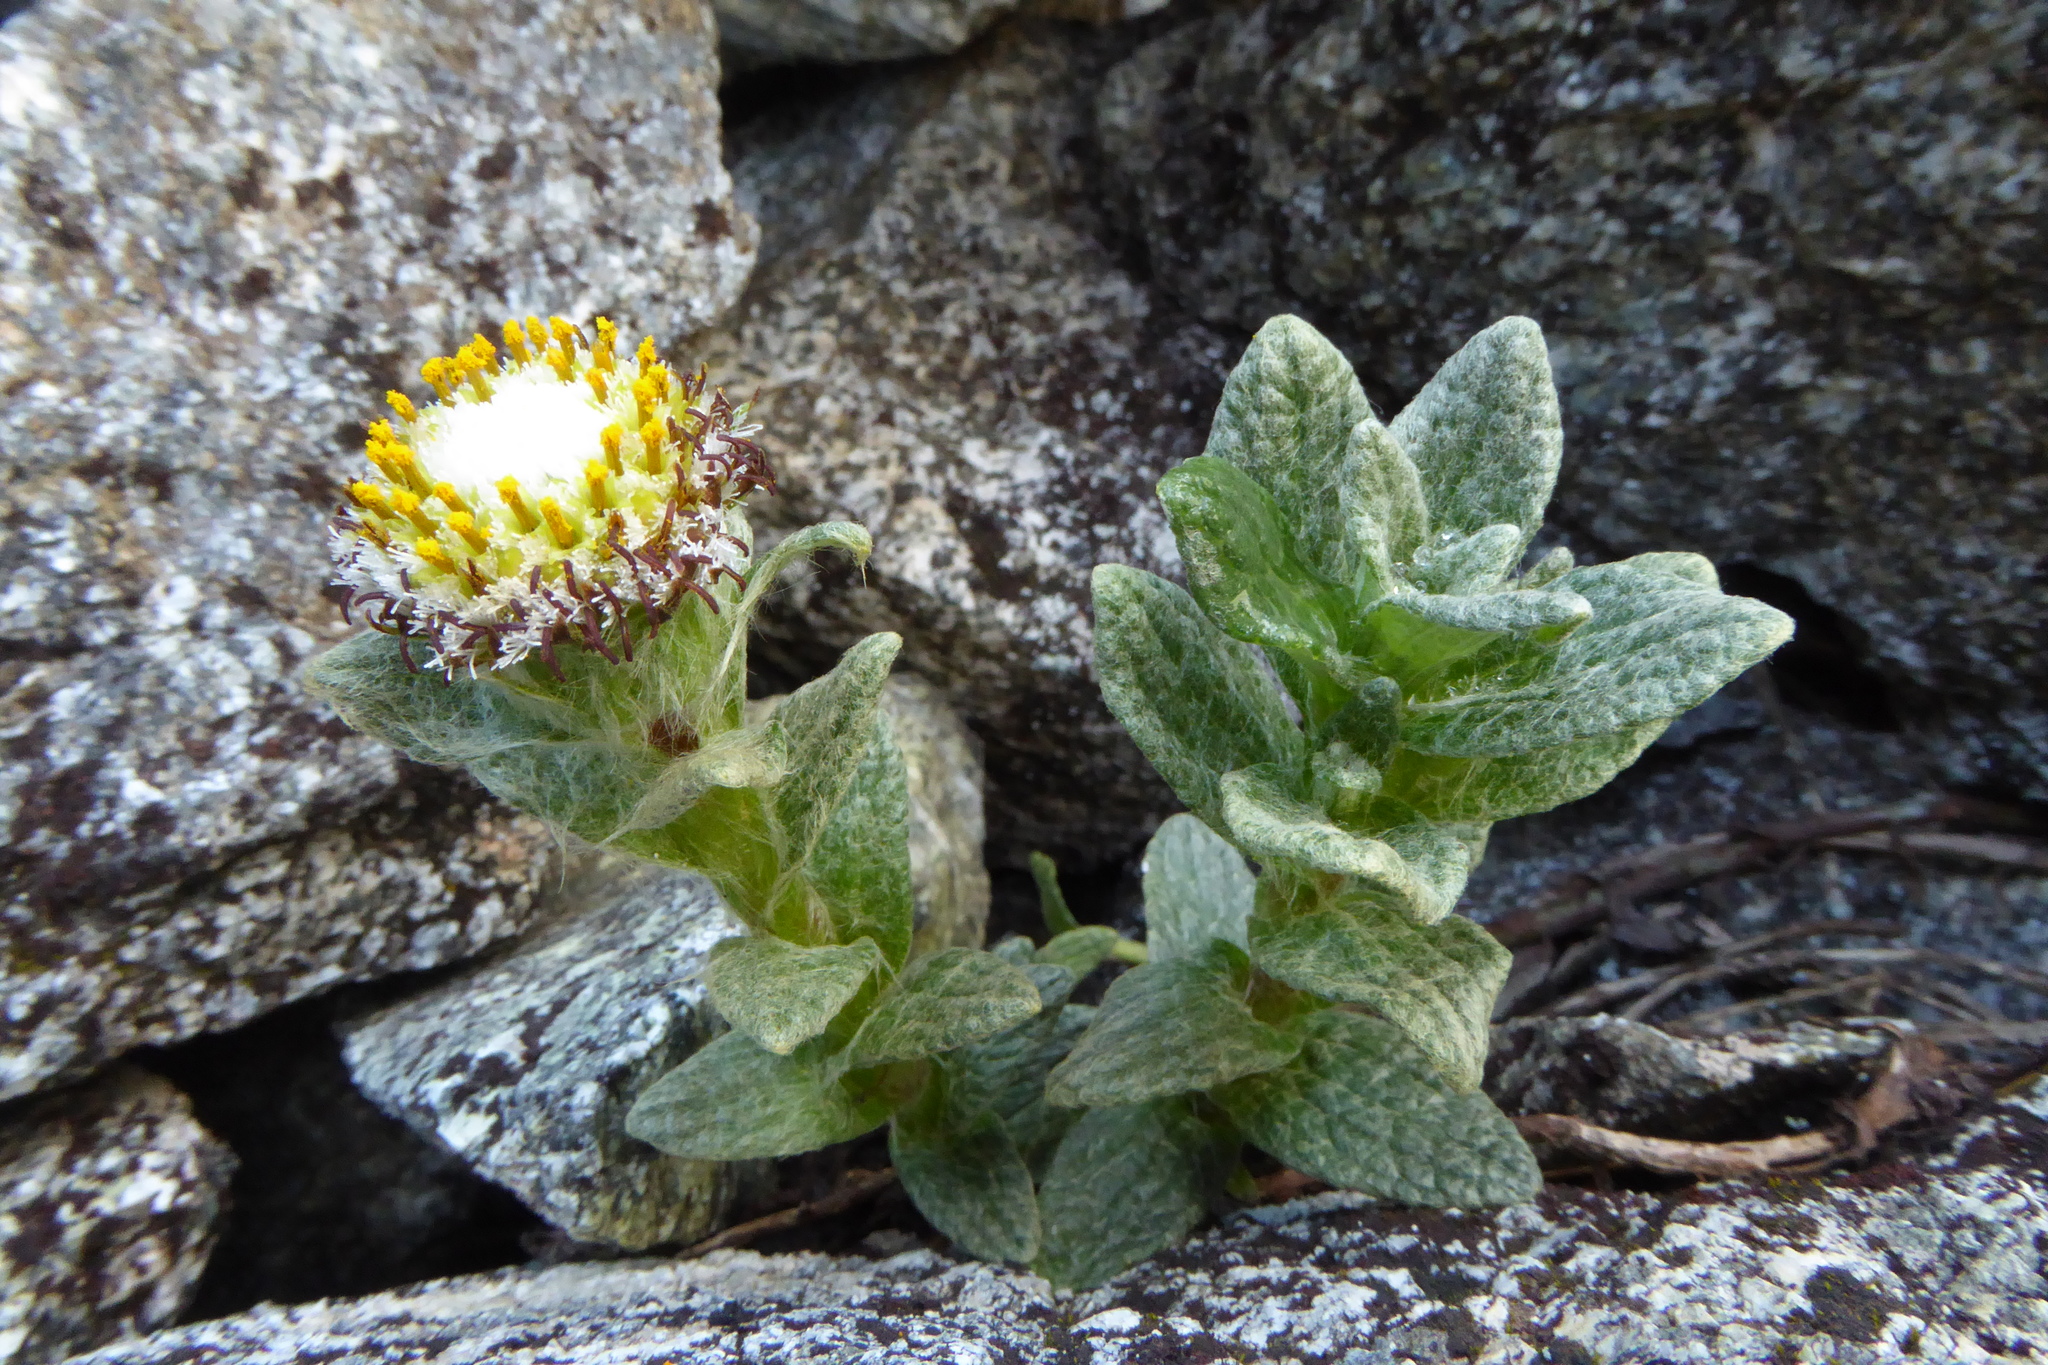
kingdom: Plantae
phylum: Tracheophyta
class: Magnoliopsida
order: Asterales
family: Asteraceae
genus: Haastia
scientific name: Haastia sinclairii
